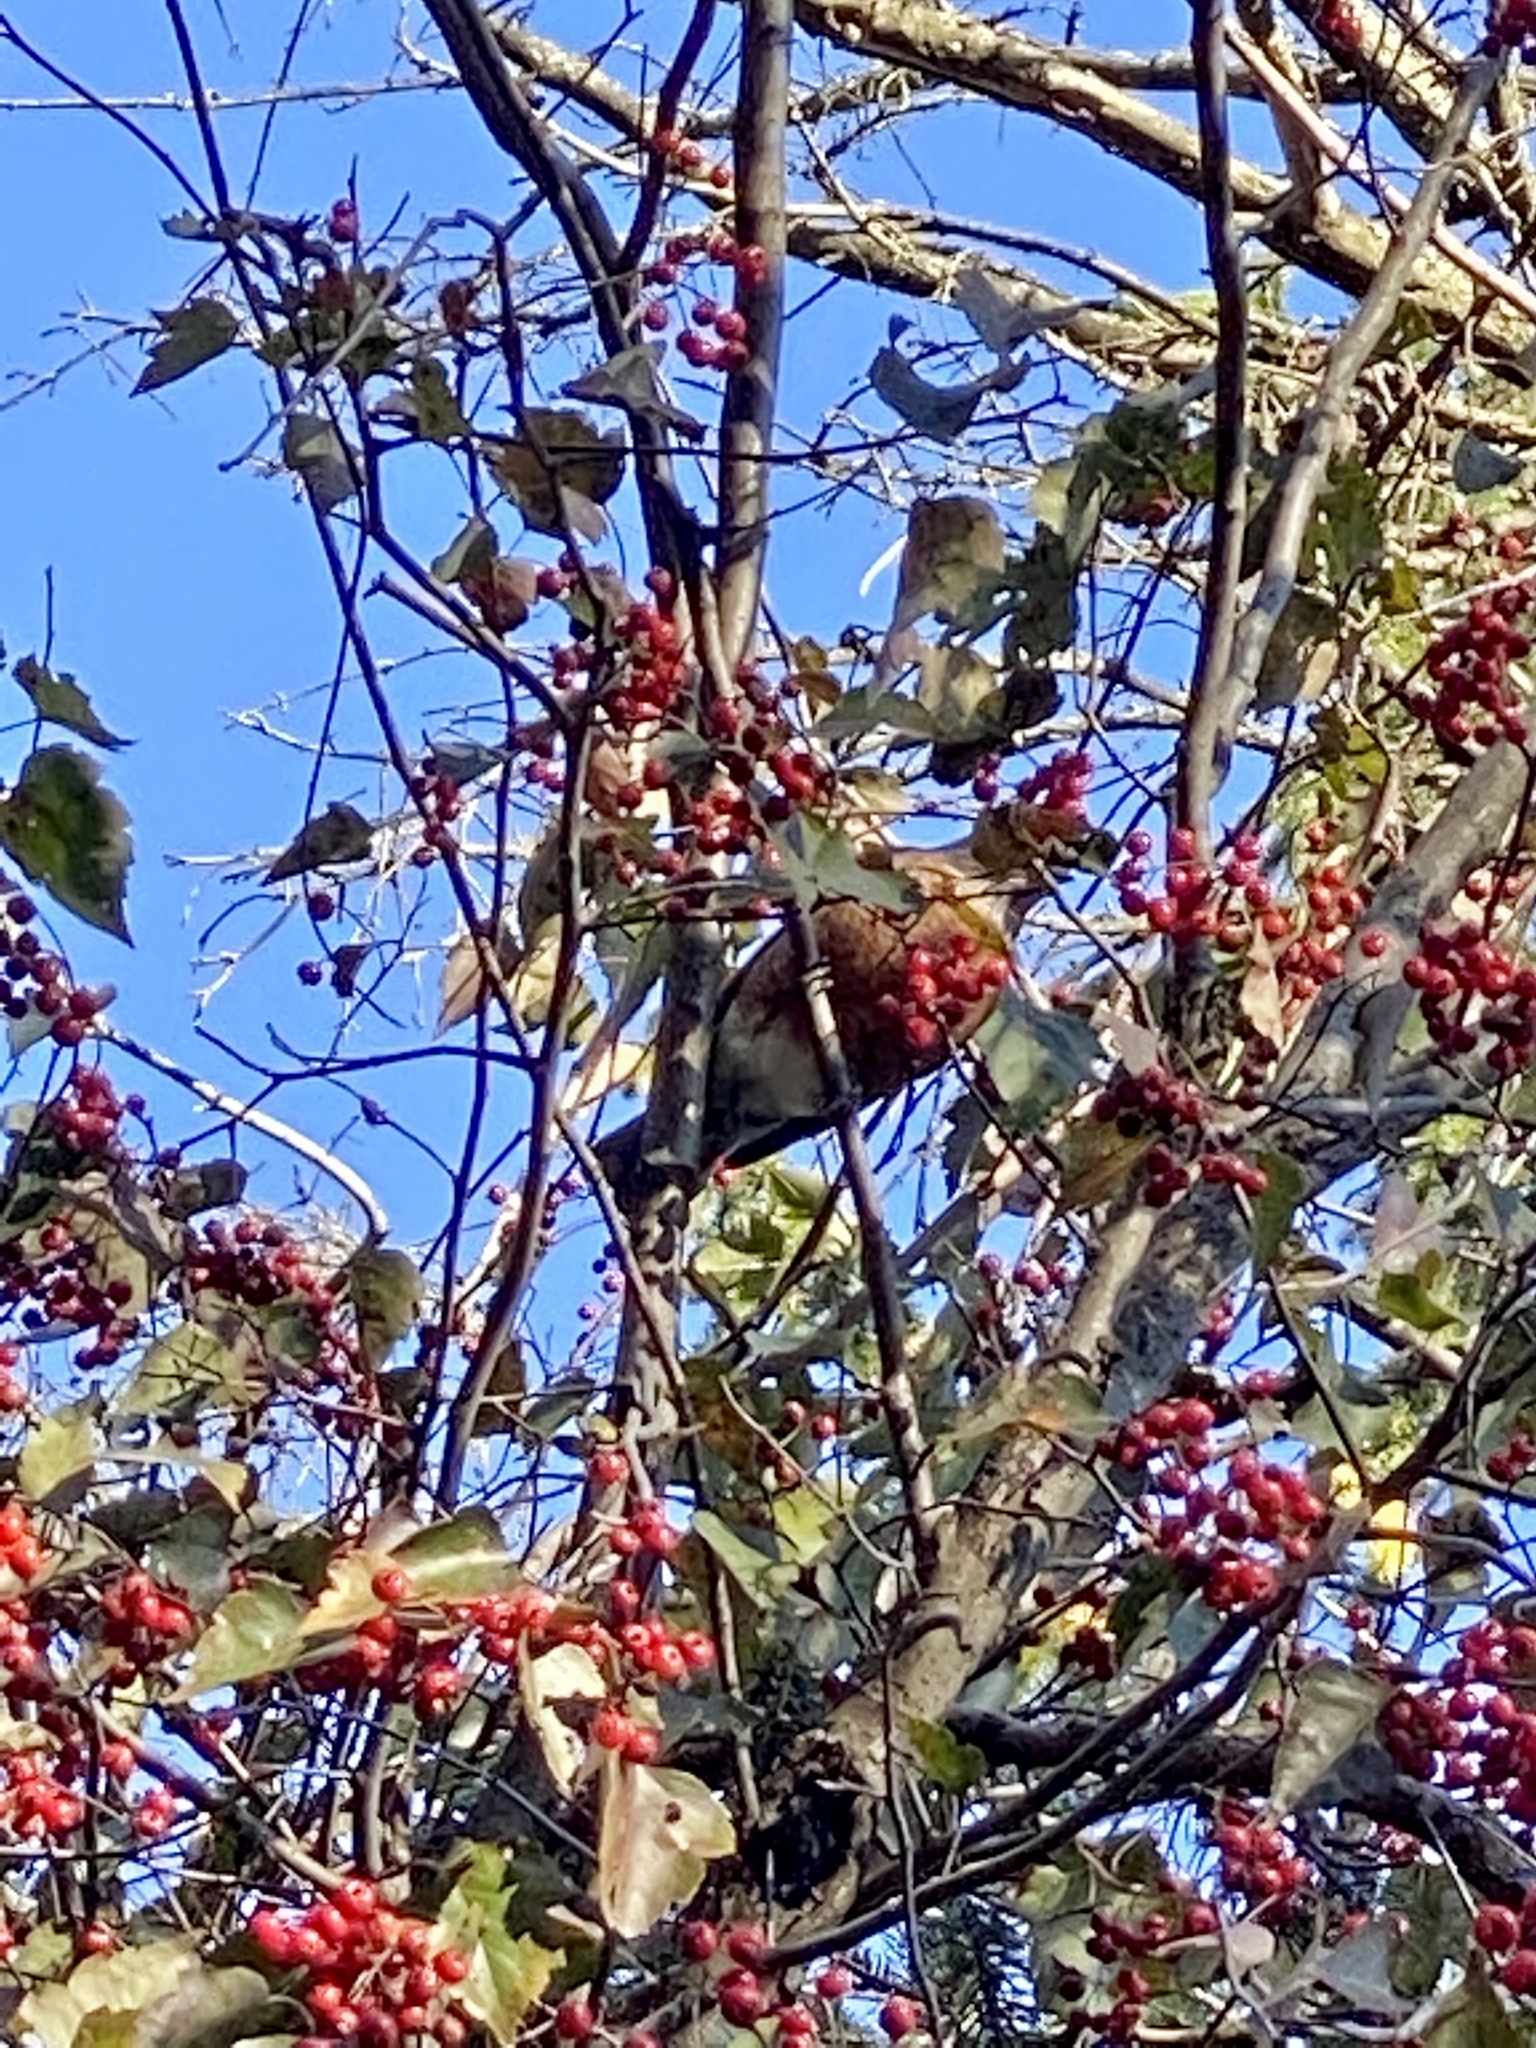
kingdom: Animalia
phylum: Chordata
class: Aves
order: Passeriformes
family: Turdidae
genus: Turdus
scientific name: Turdus migratorius
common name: American robin
